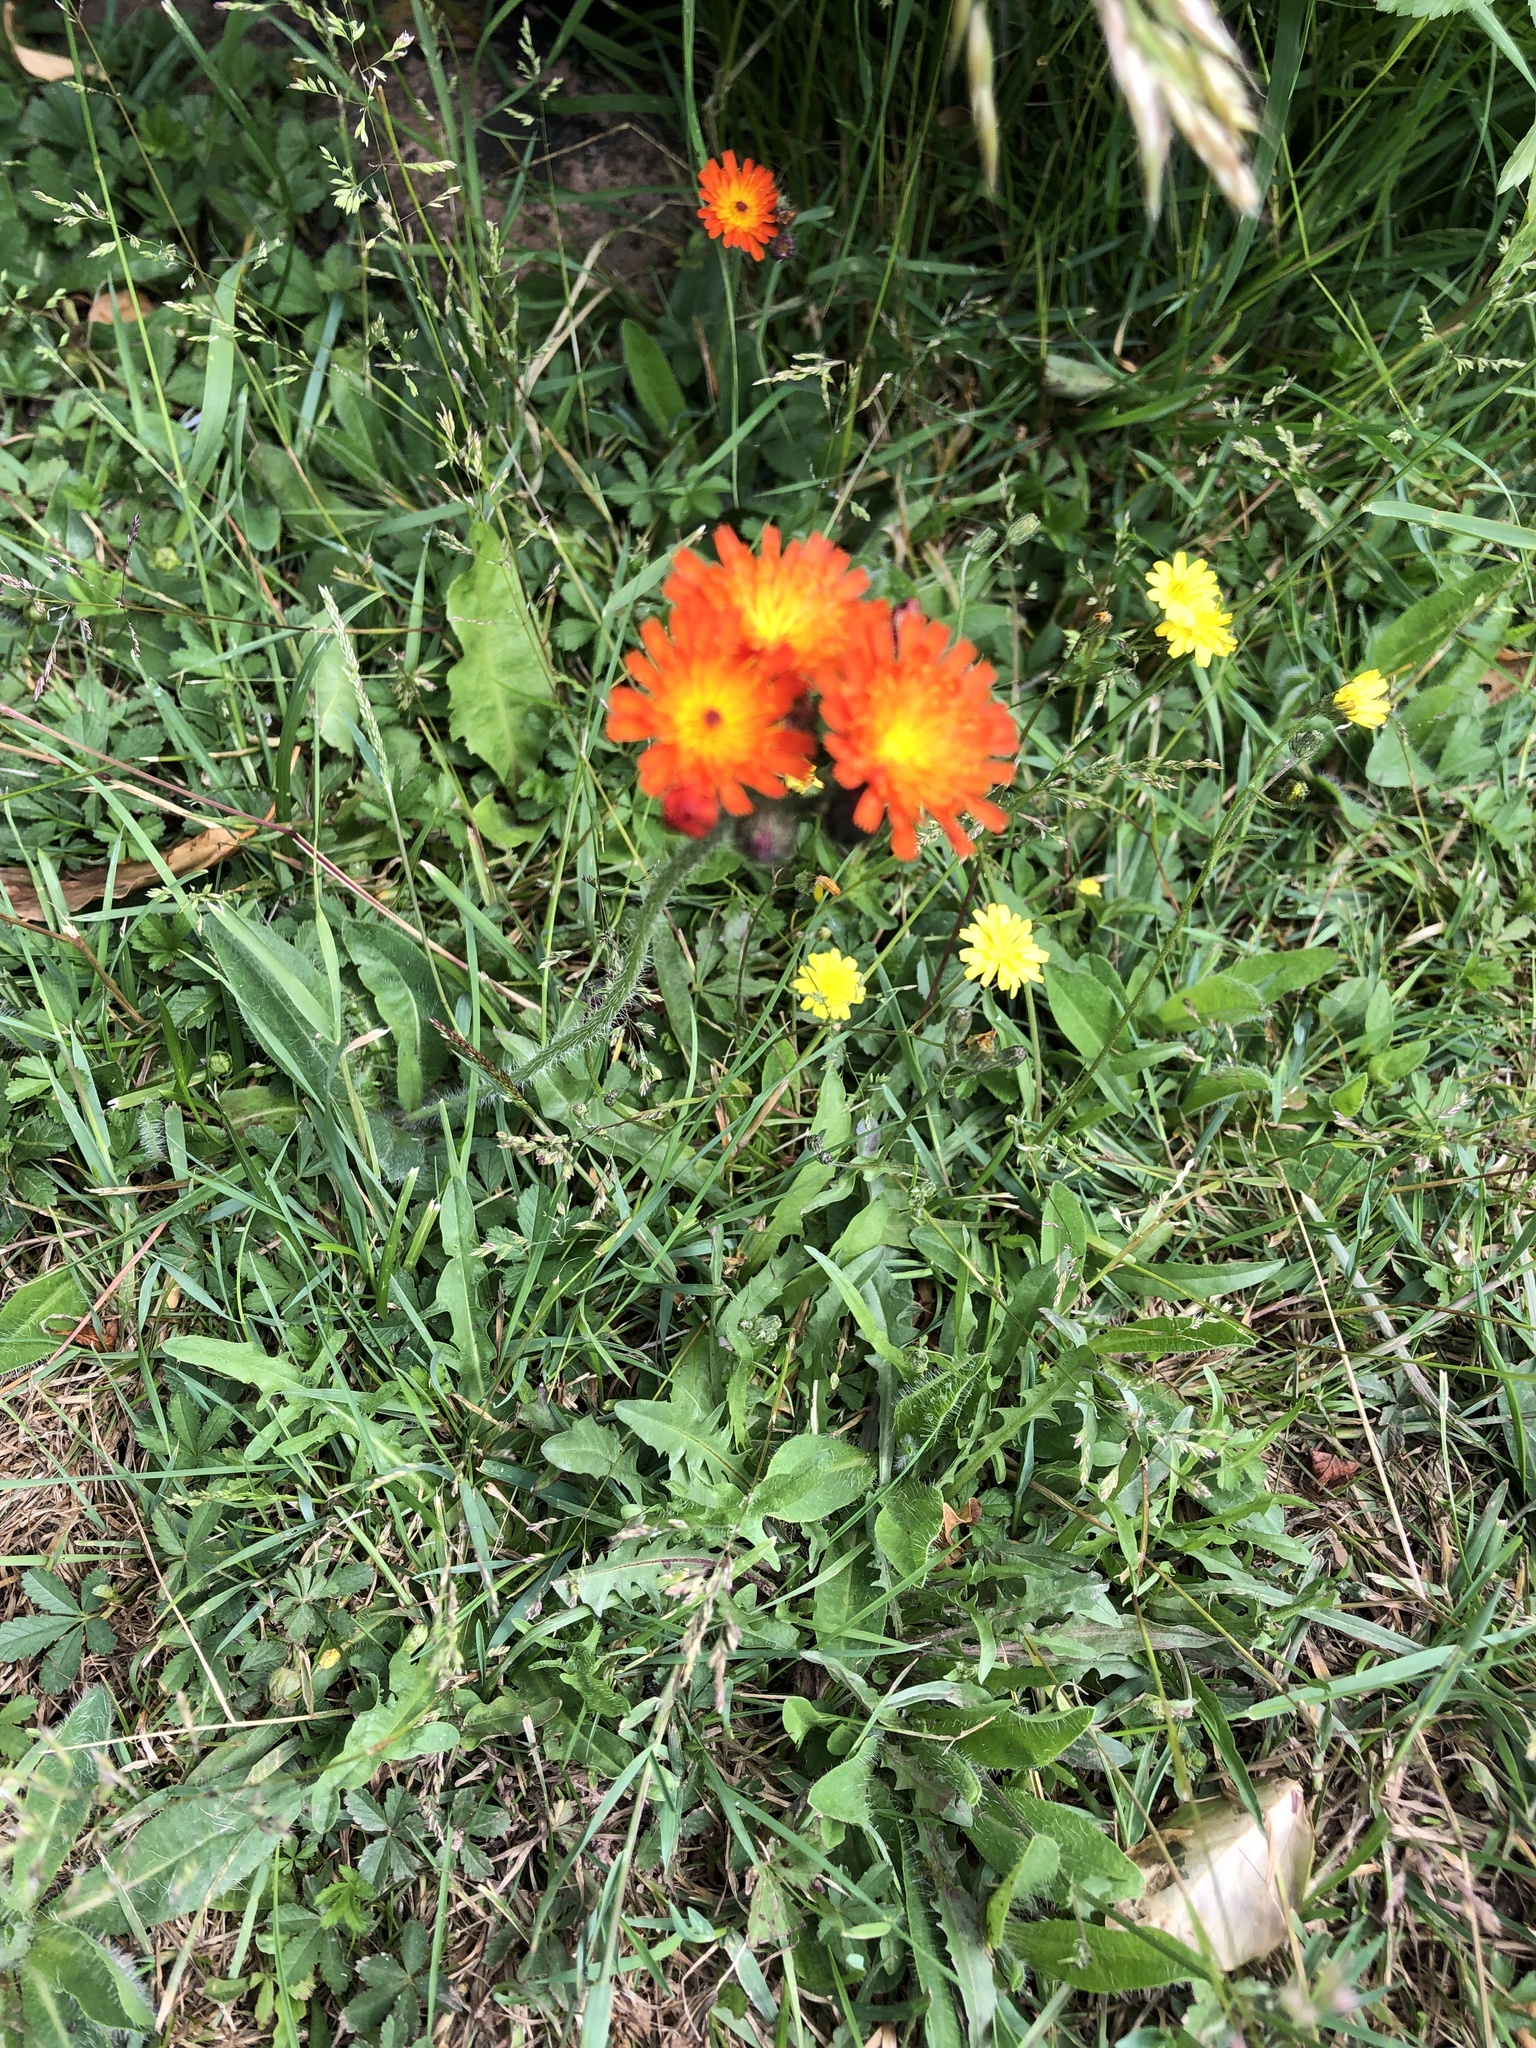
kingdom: Plantae
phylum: Tracheophyta
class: Magnoliopsida
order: Asterales
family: Asteraceae
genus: Pilosella
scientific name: Pilosella aurantiaca
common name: Fox-and-cubs
